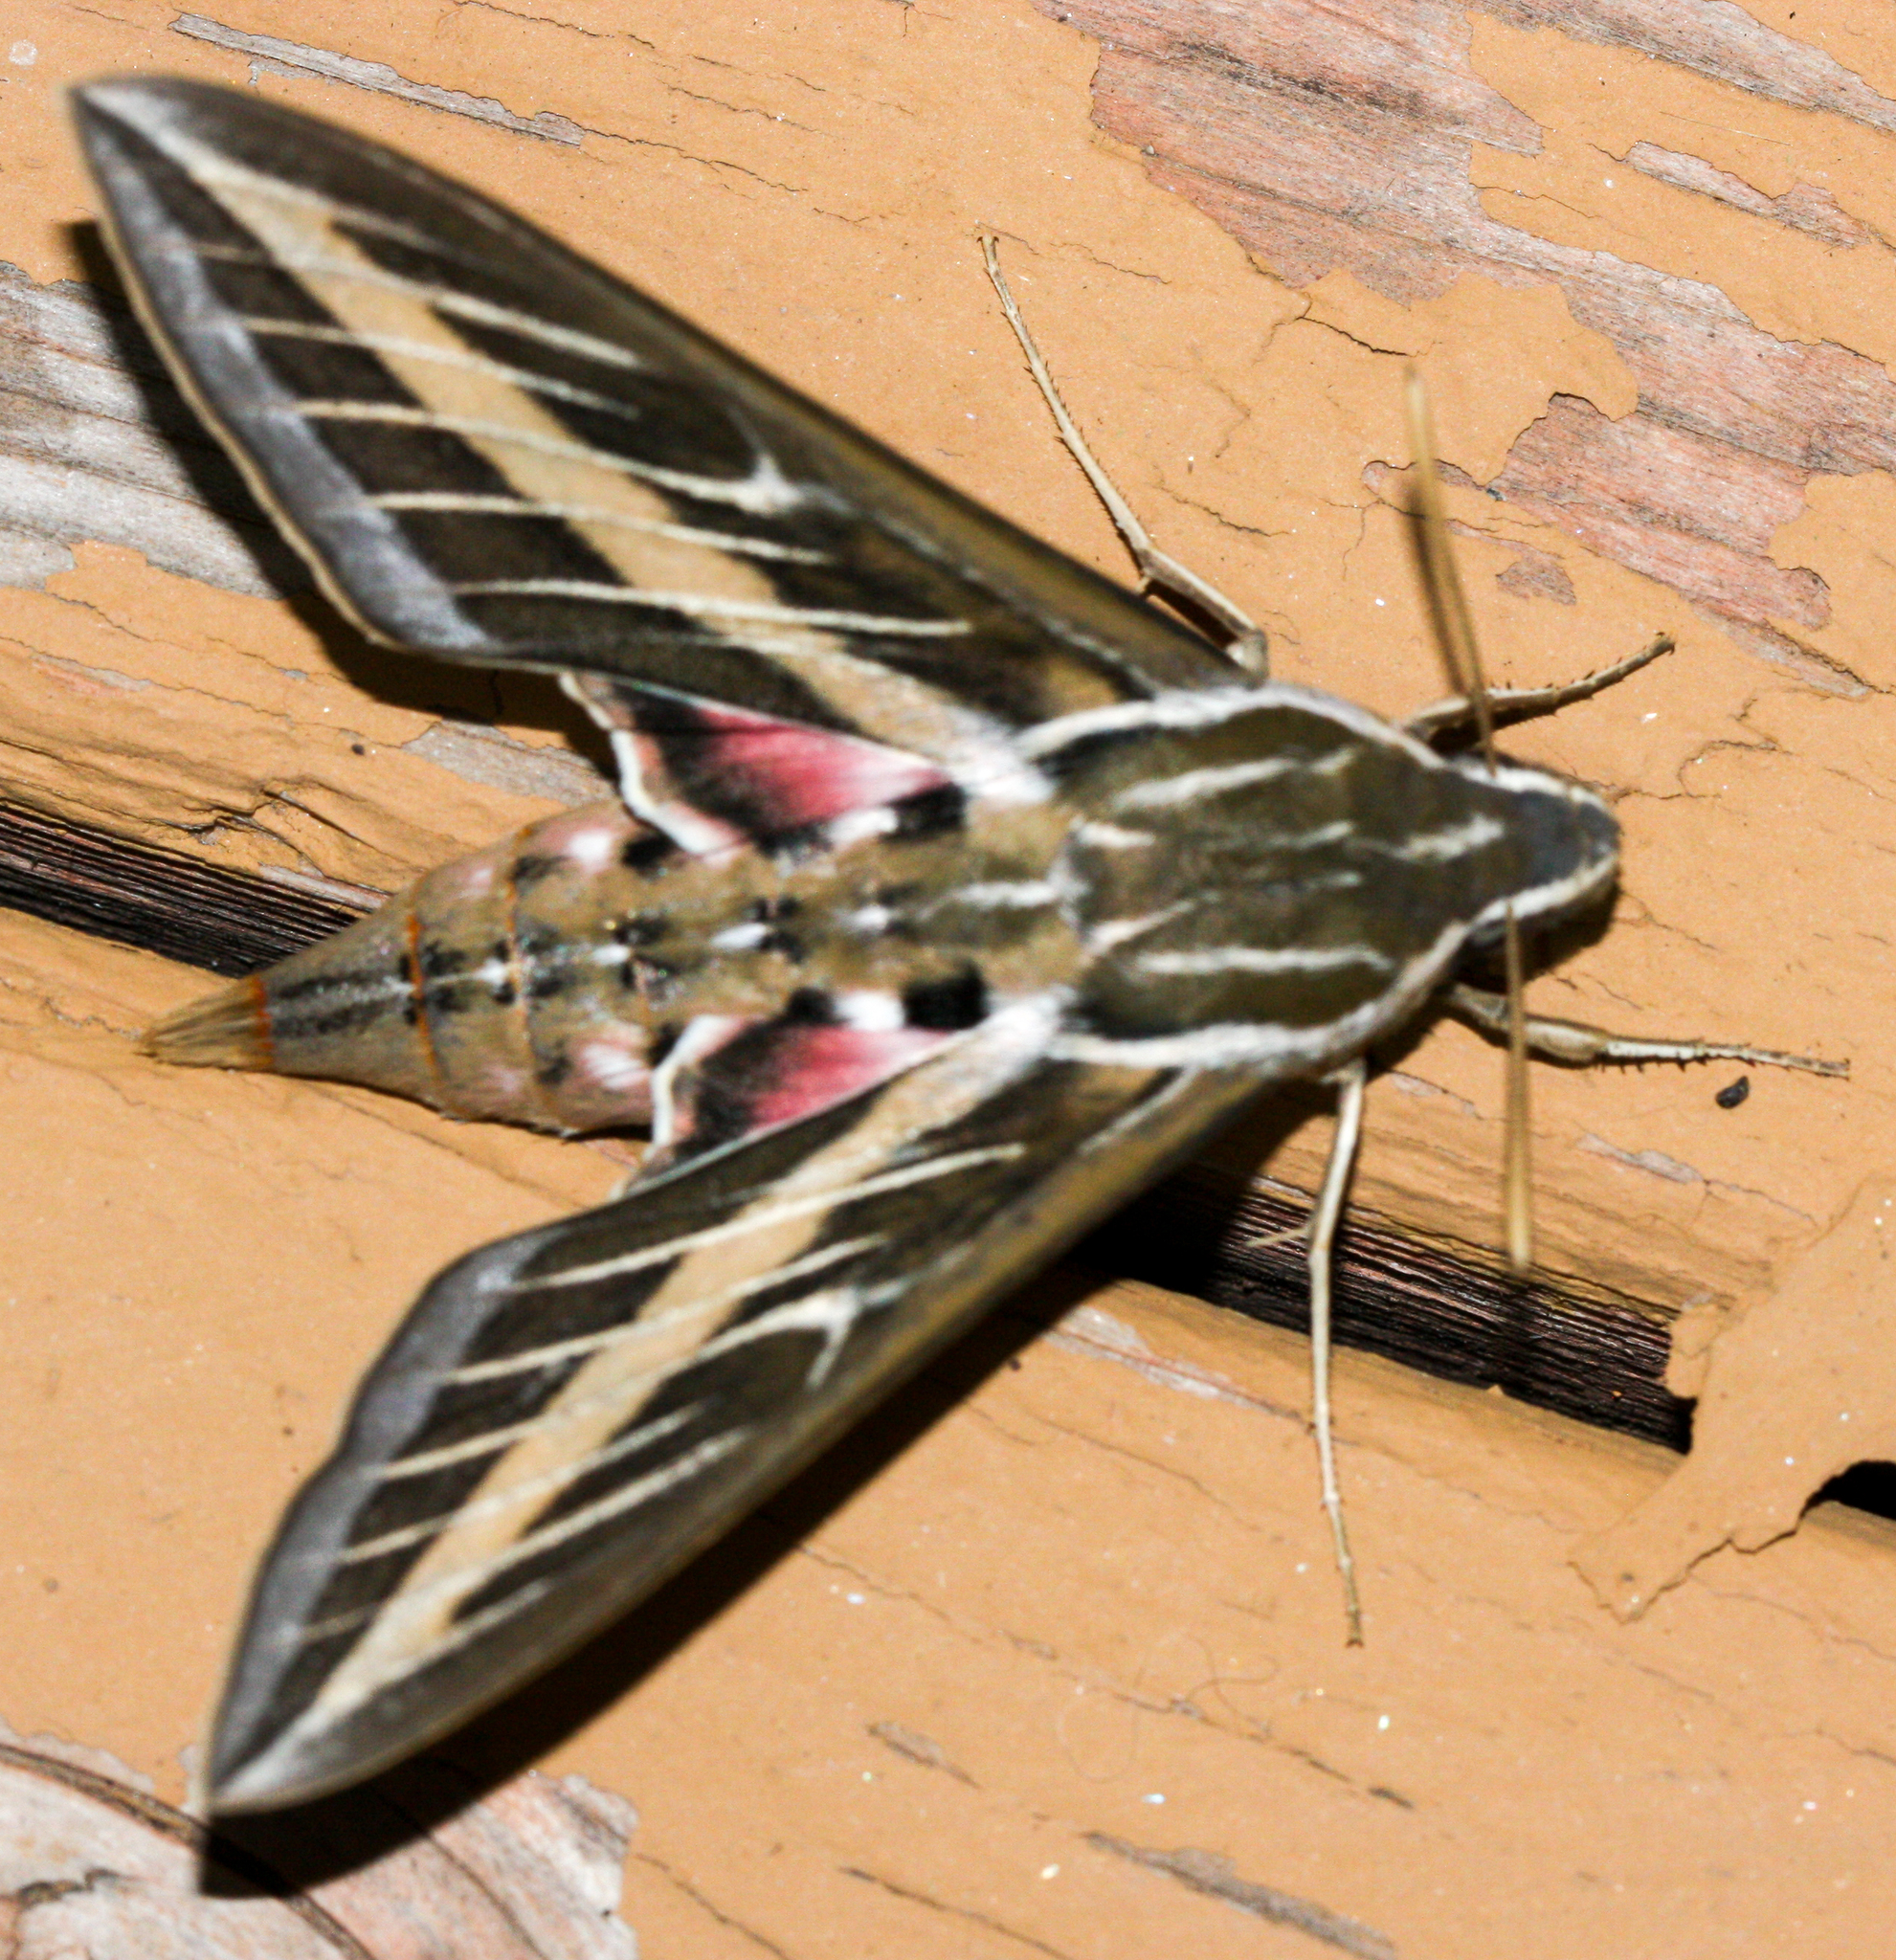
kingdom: Animalia
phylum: Arthropoda
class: Insecta
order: Lepidoptera
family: Sphingidae
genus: Hyles
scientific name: Hyles lineata
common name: White-lined sphinx
